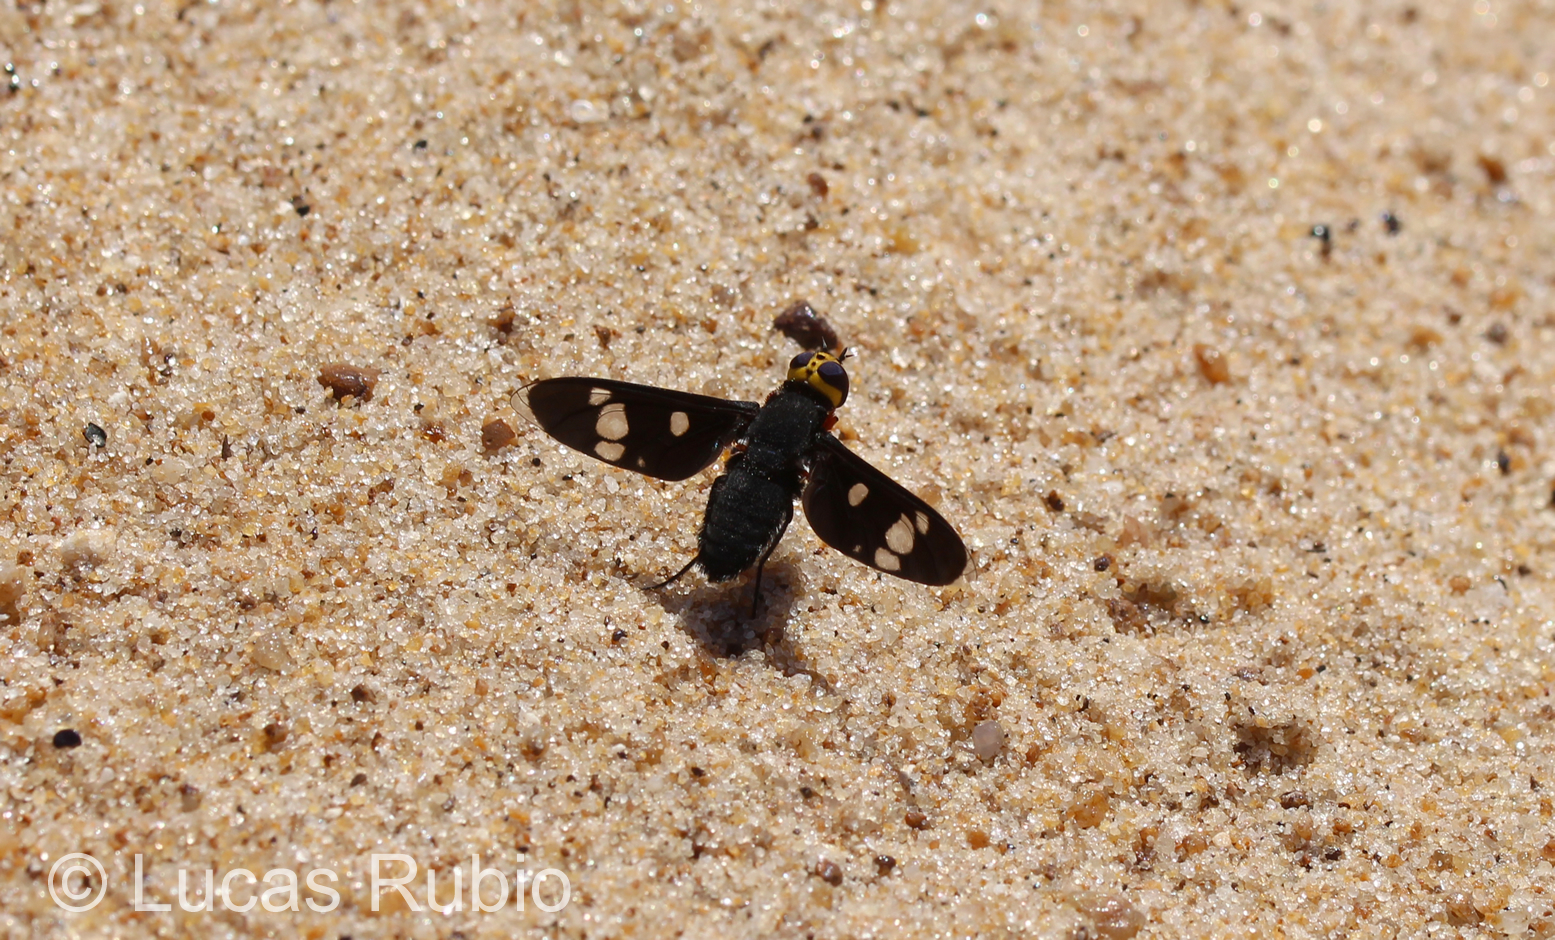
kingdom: Animalia
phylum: Arthropoda
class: Insecta
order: Diptera
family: Bombyliidae
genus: Hyperalonia
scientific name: Hyperalonia morio
